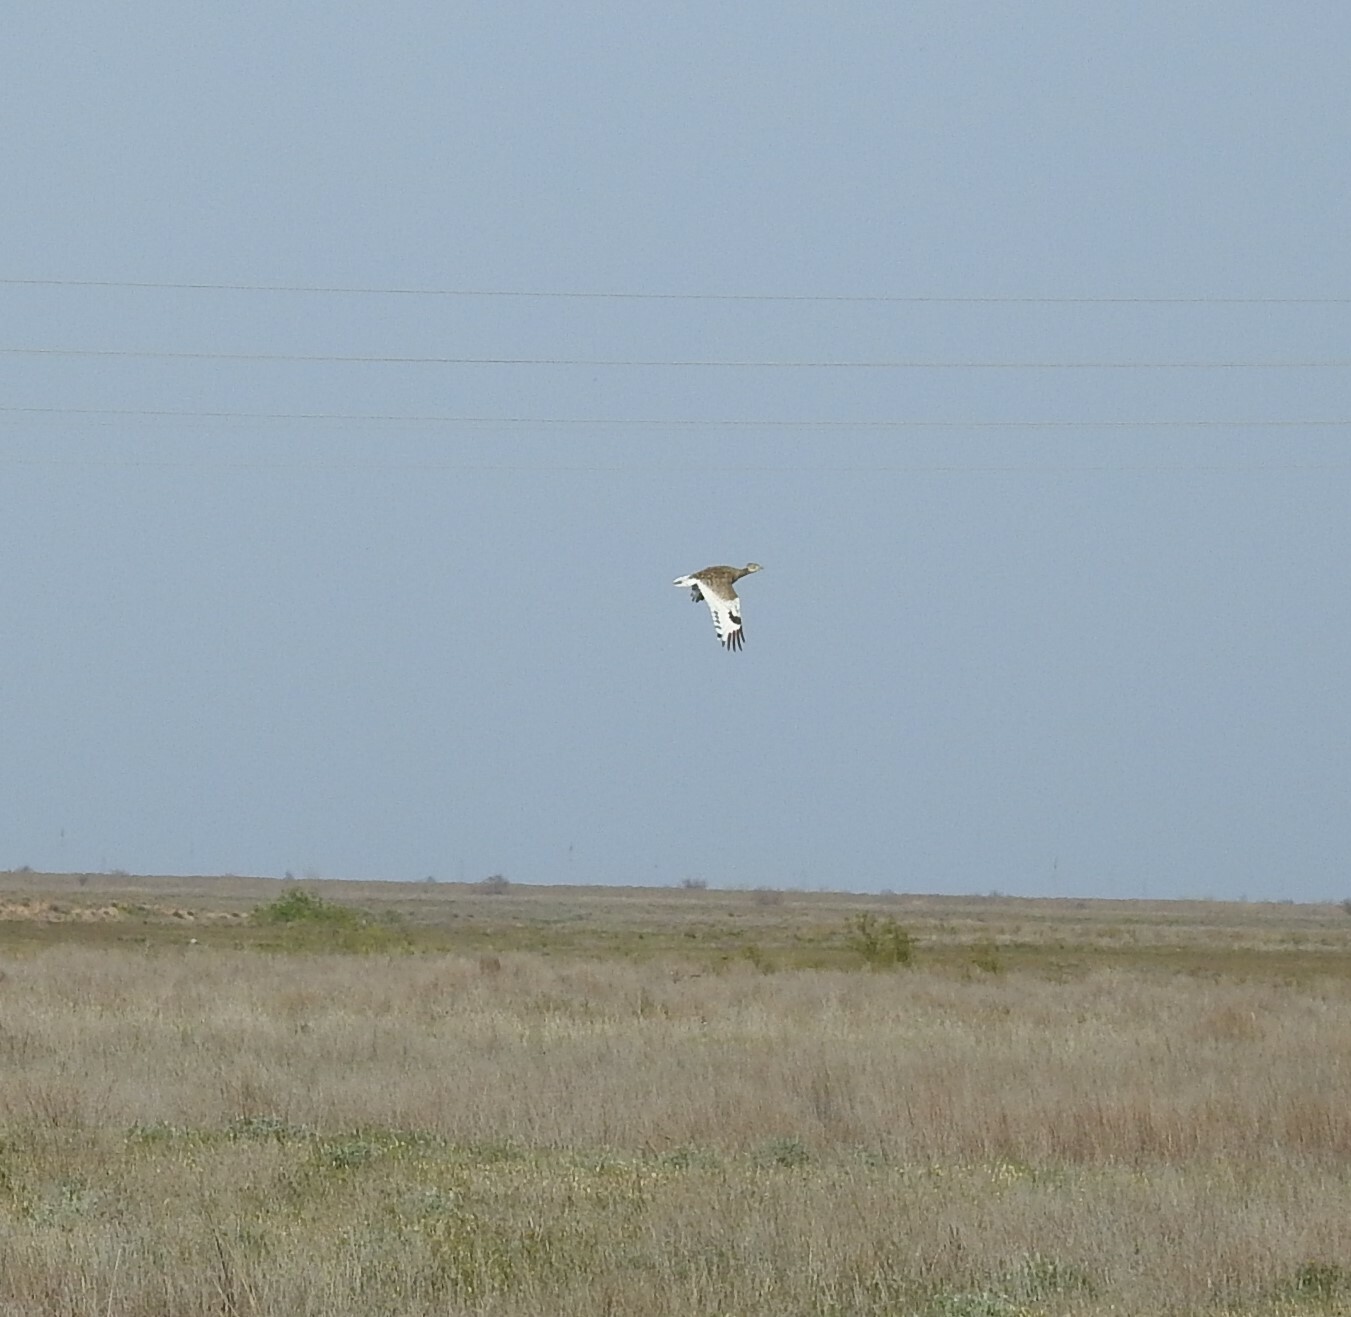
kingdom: Animalia
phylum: Chordata
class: Aves
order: Otidiformes
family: Otididae
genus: Tetrax
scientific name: Tetrax tetrax
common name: Little bustard
